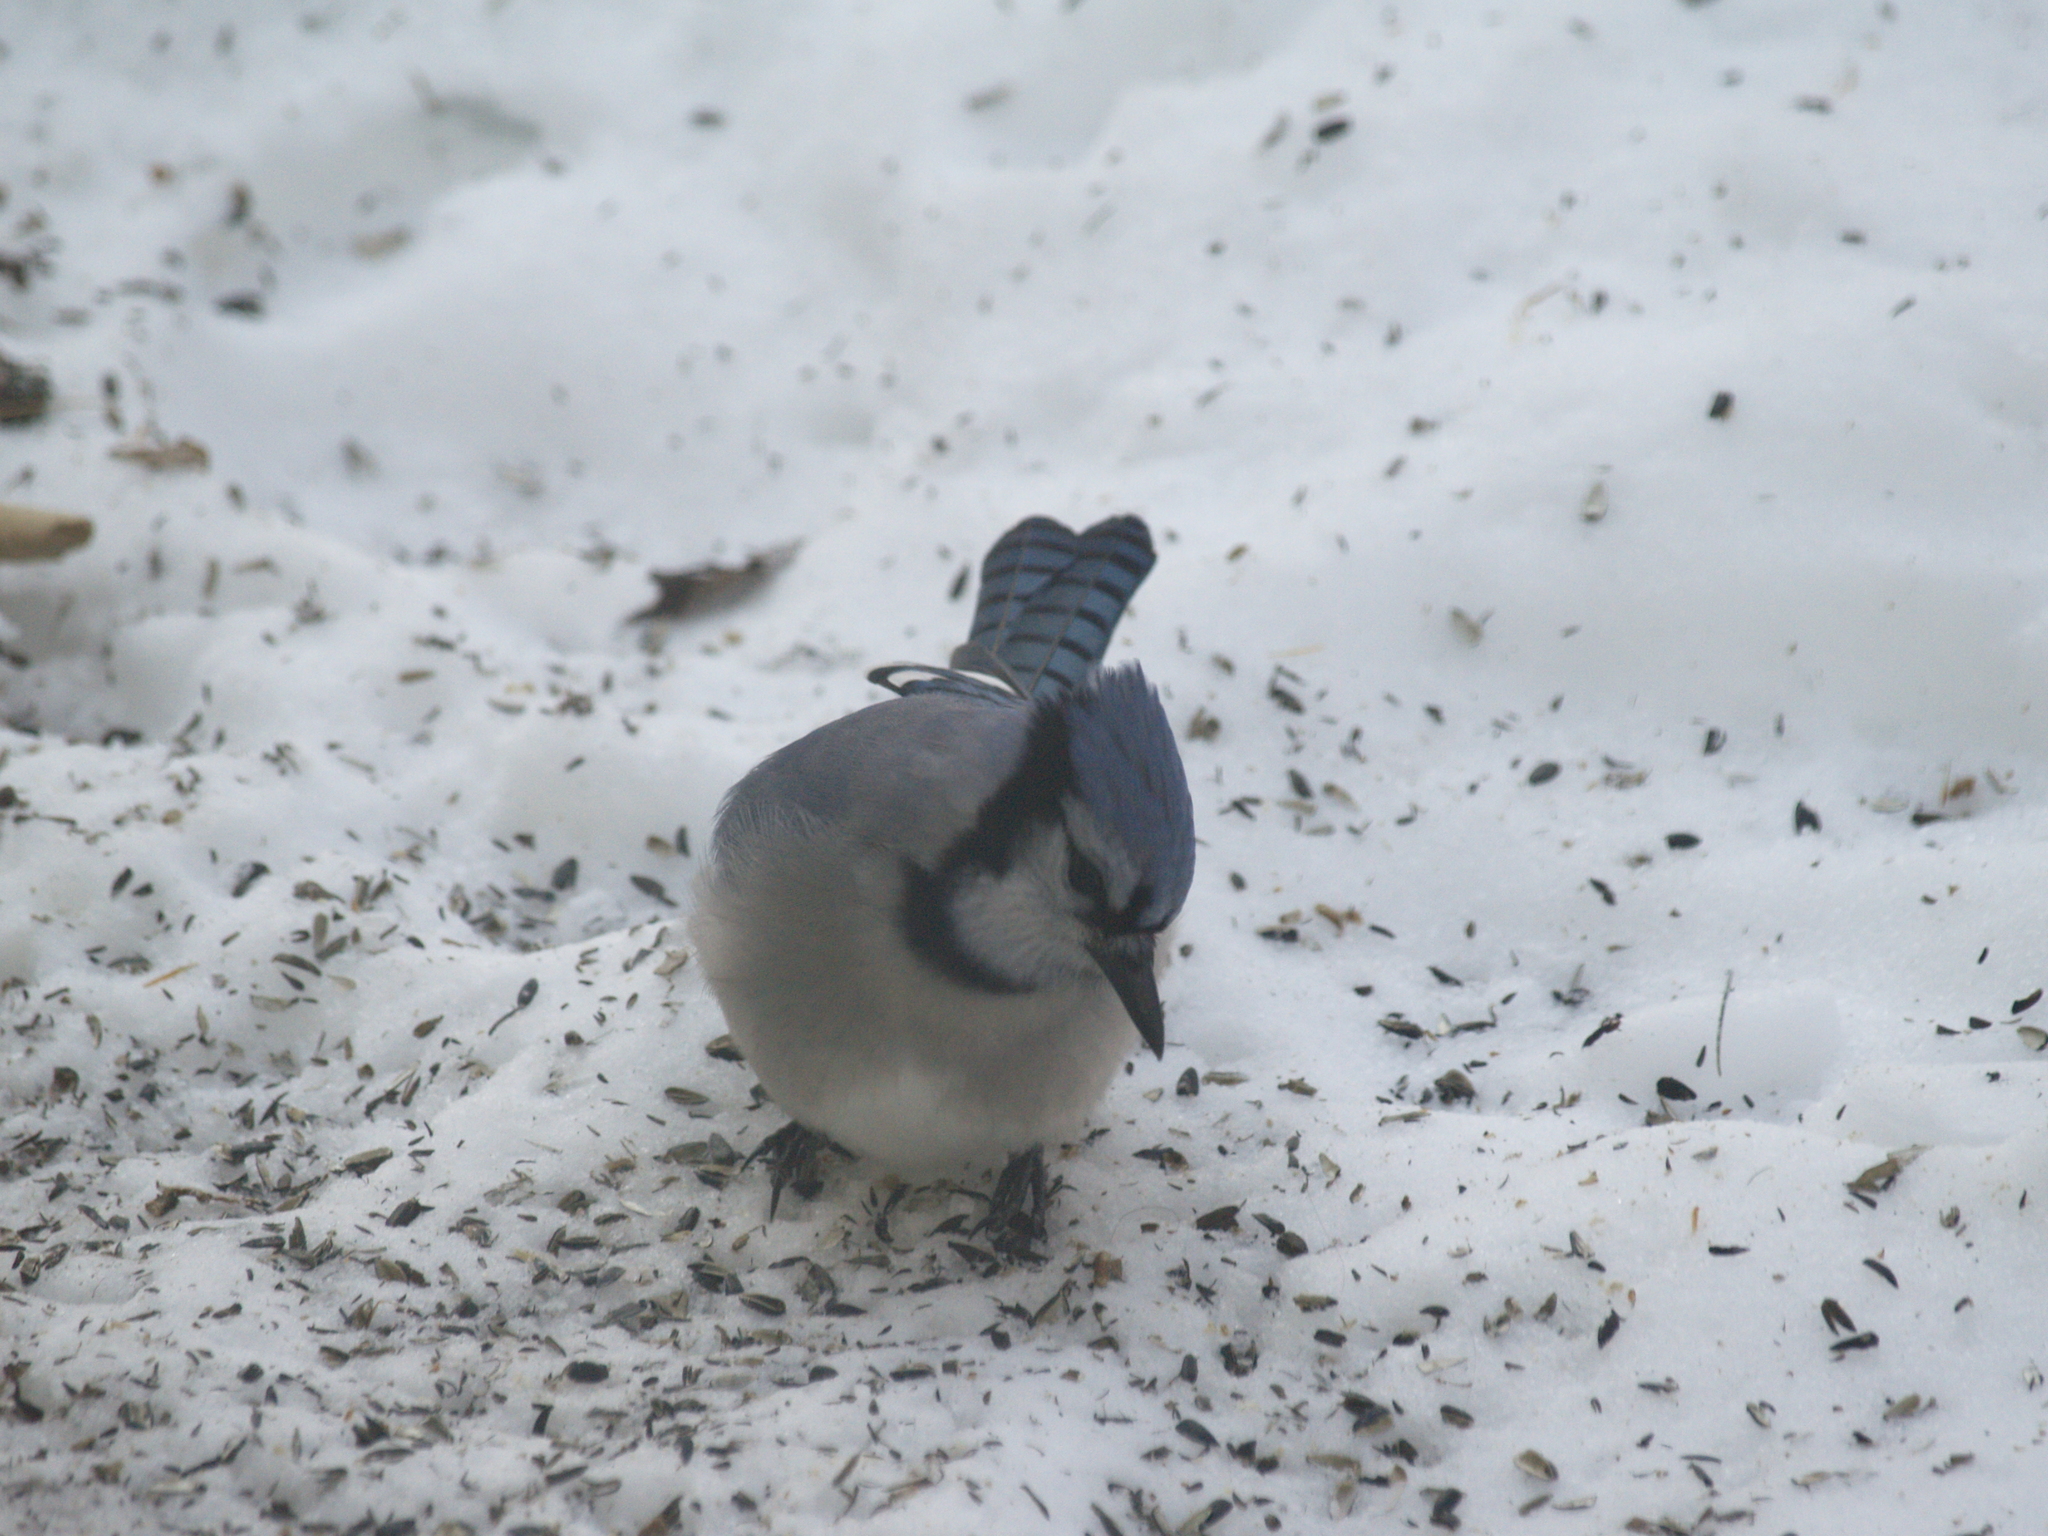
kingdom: Animalia
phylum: Chordata
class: Aves
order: Passeriformes
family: Corvidae
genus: Cyanocitta
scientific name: Cyanocitta cristata
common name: Blue jay
